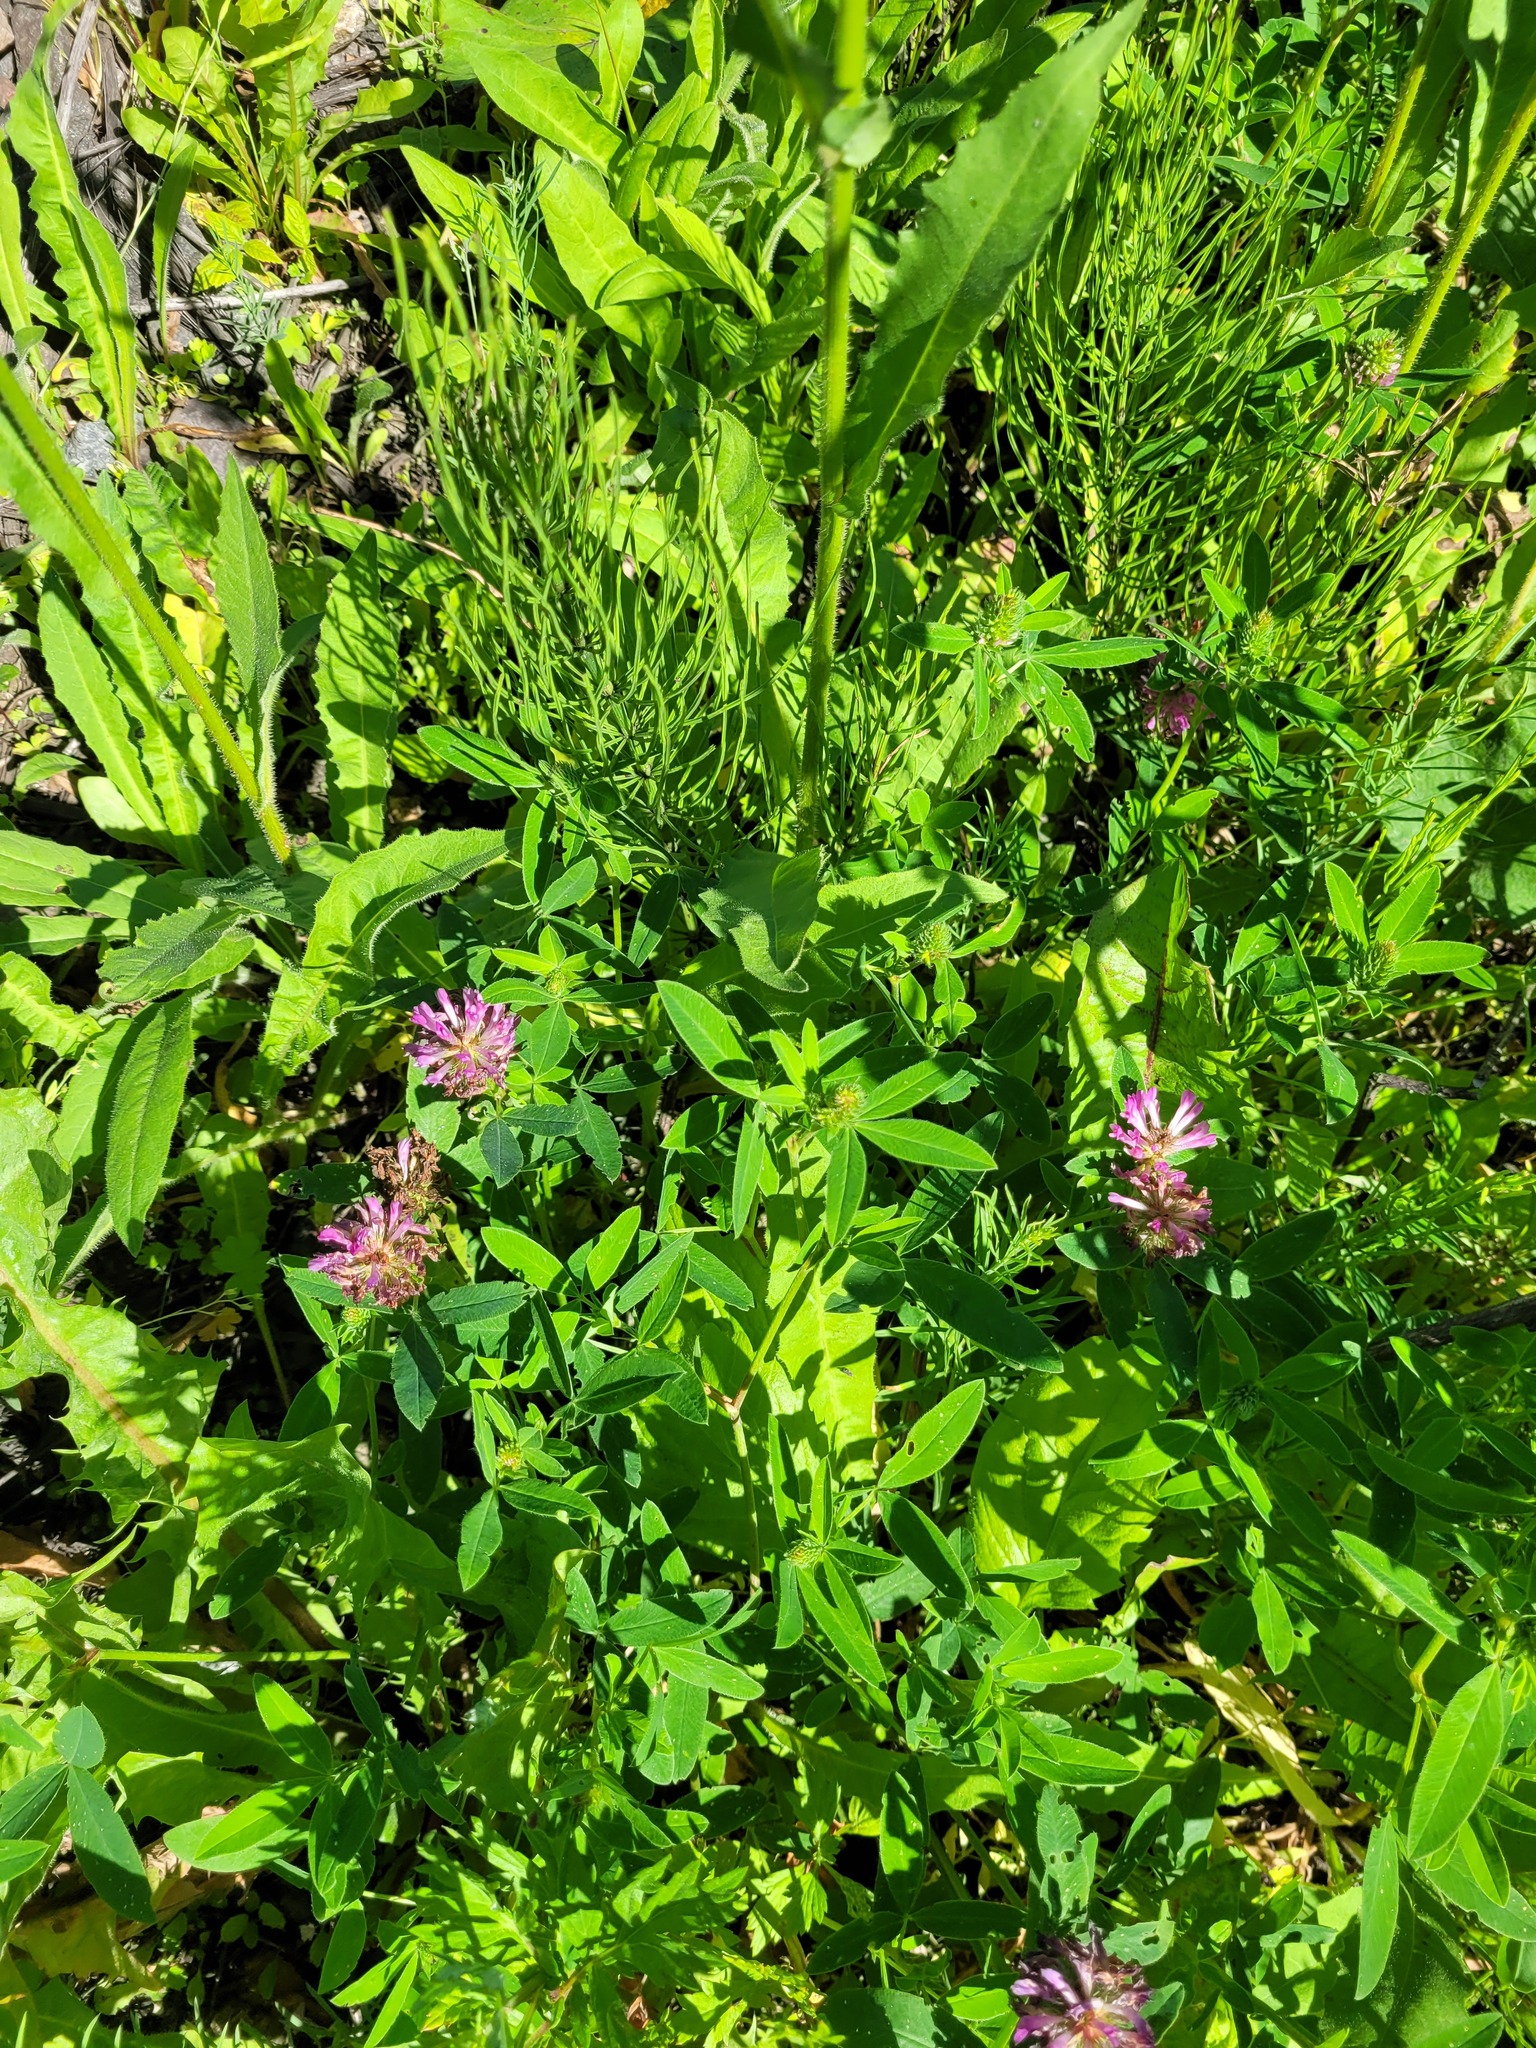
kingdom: Plantae
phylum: Tracheophyta
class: Magnoliopsida
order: Fabales
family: Fabaceae
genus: Trifolium
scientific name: Trifolium medium
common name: Zigzag clover
